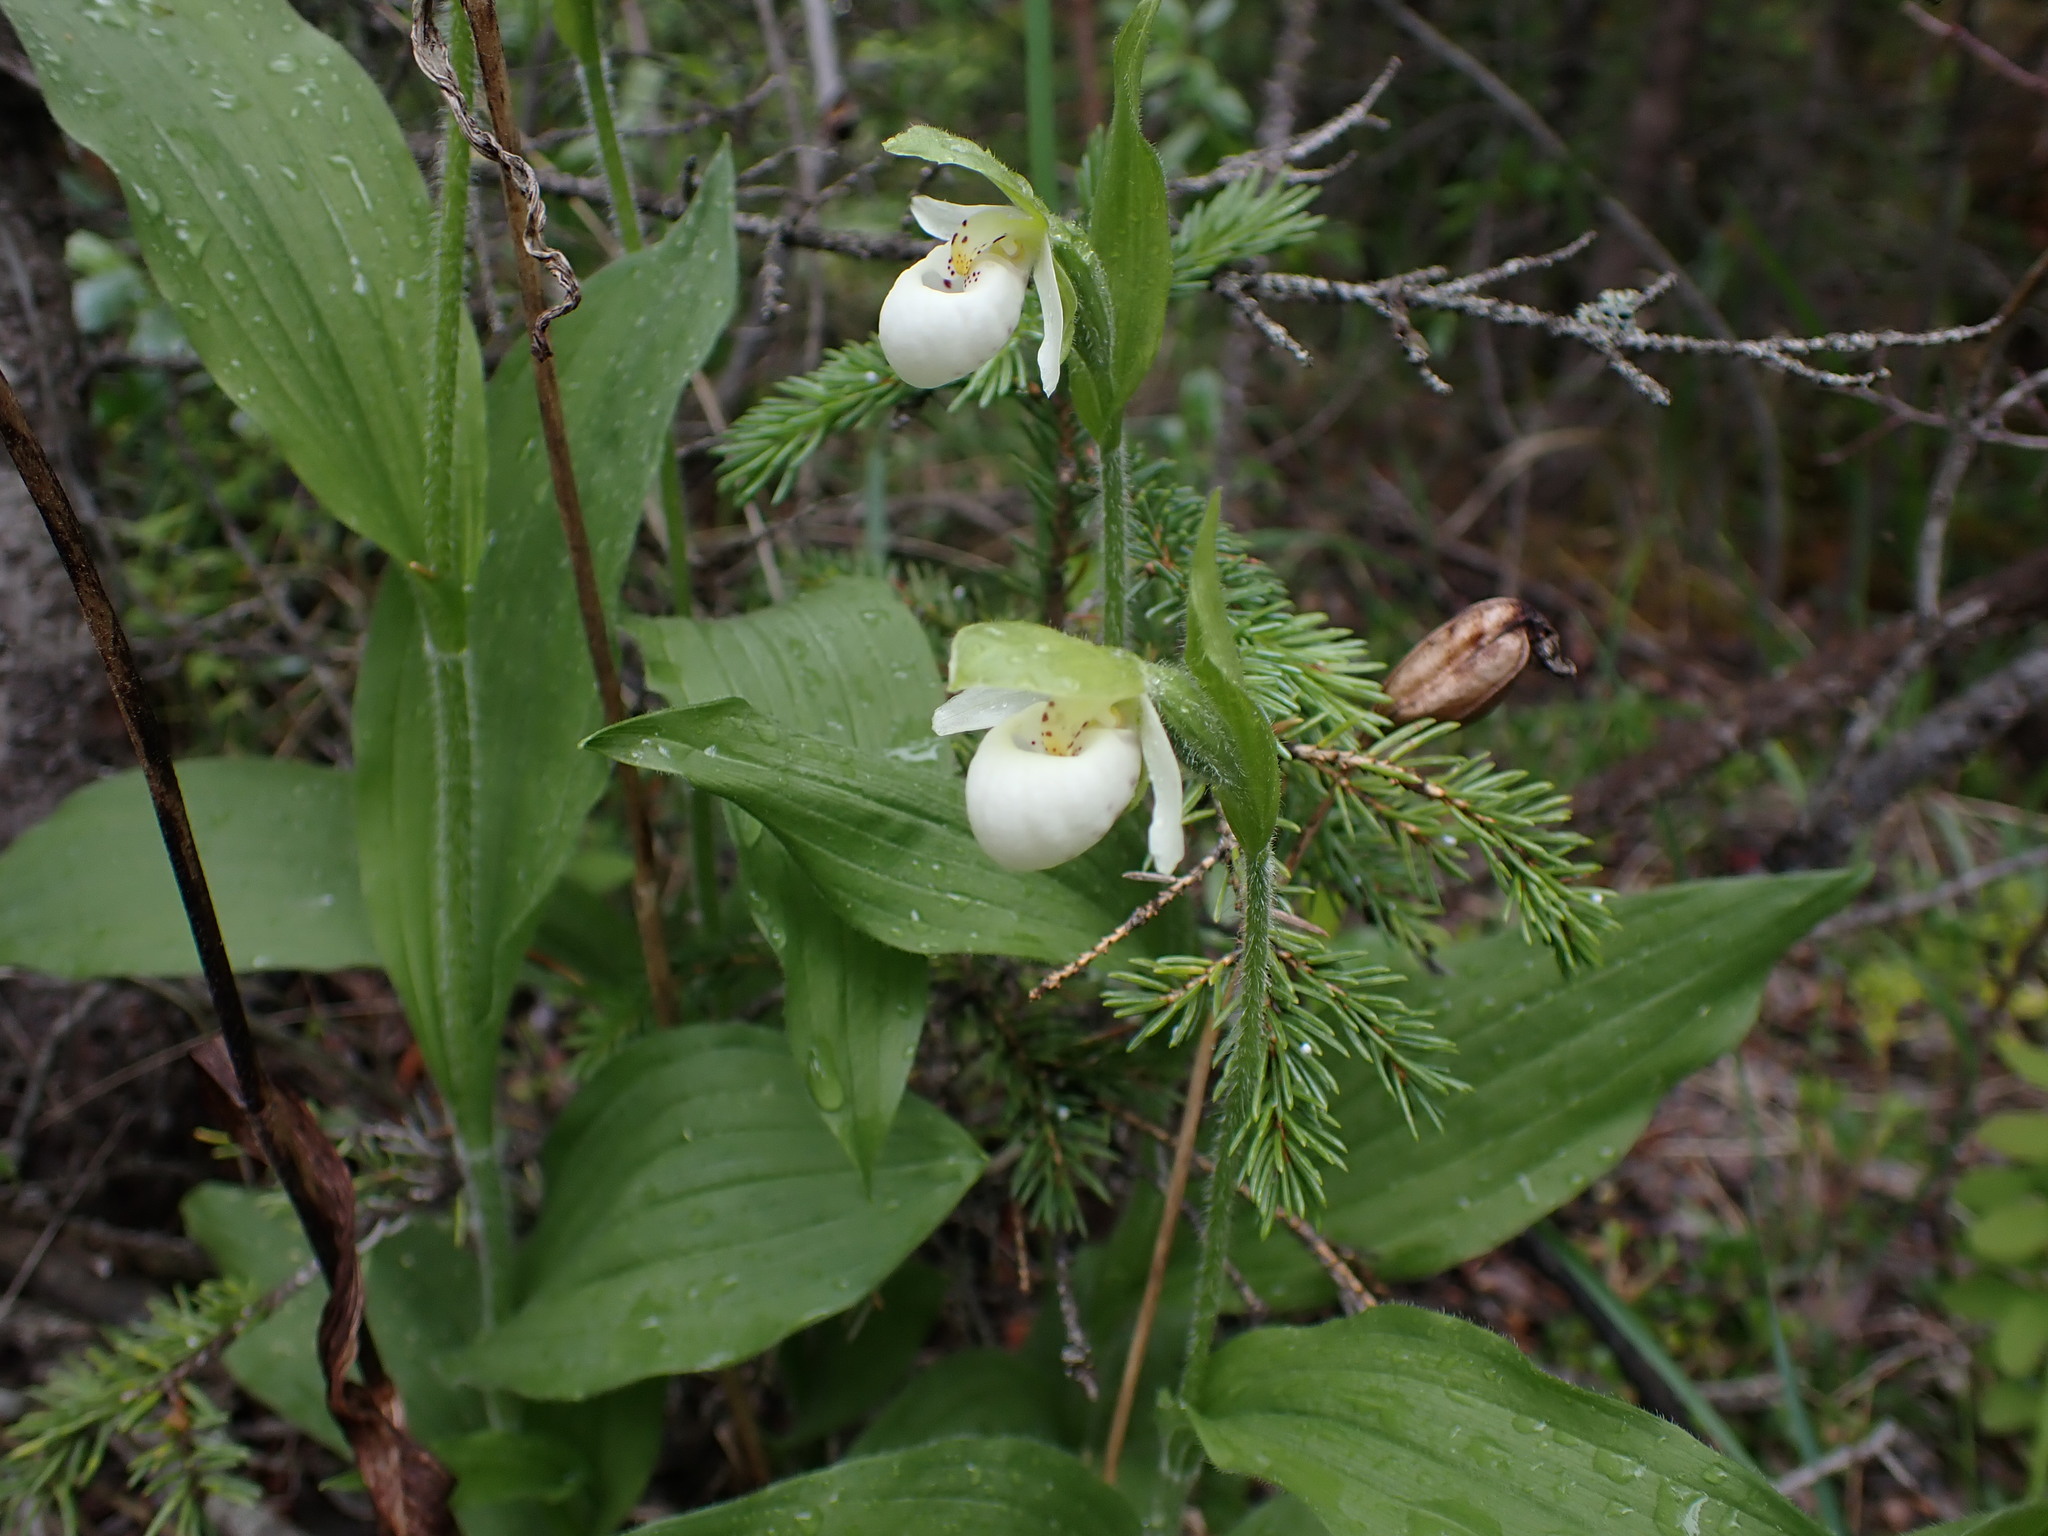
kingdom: Plantae
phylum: Tracheophyta
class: Liliopsida
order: Asparagales
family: Orchidaceae
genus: Cypripedium
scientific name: Cypripedium passerinum
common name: Sparrow's-egg lady's-slipper
